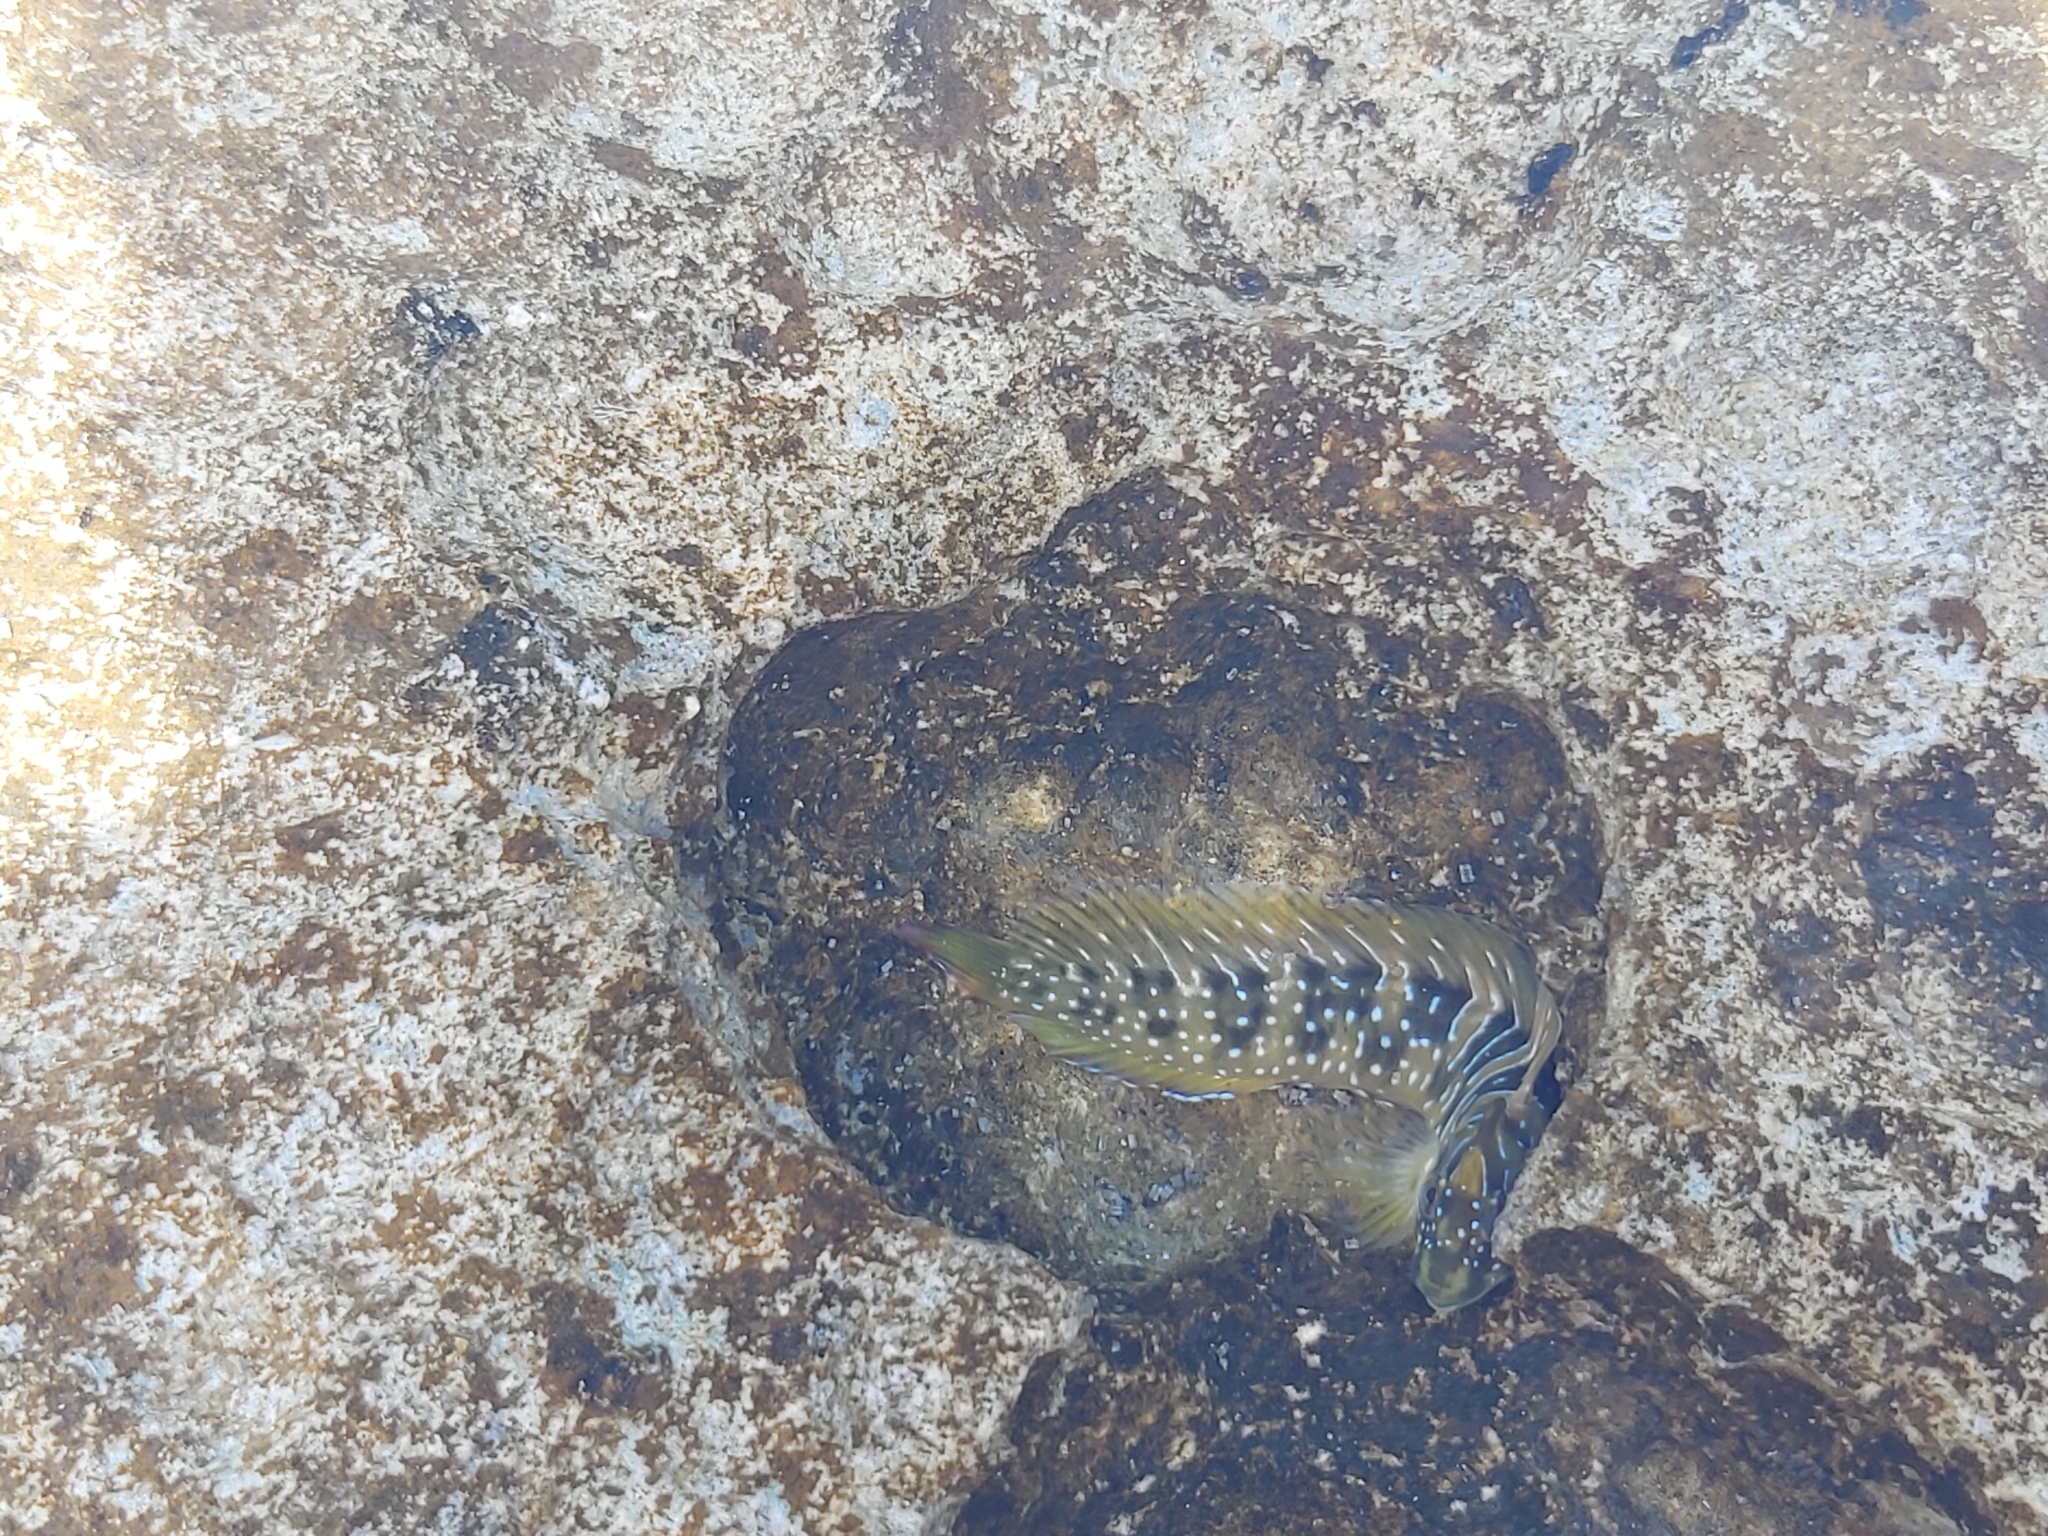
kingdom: Animalia
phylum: Chordata
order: Perciformes
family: Blenniidae
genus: Salaria
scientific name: Salaria pavo
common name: Peacock blenny
